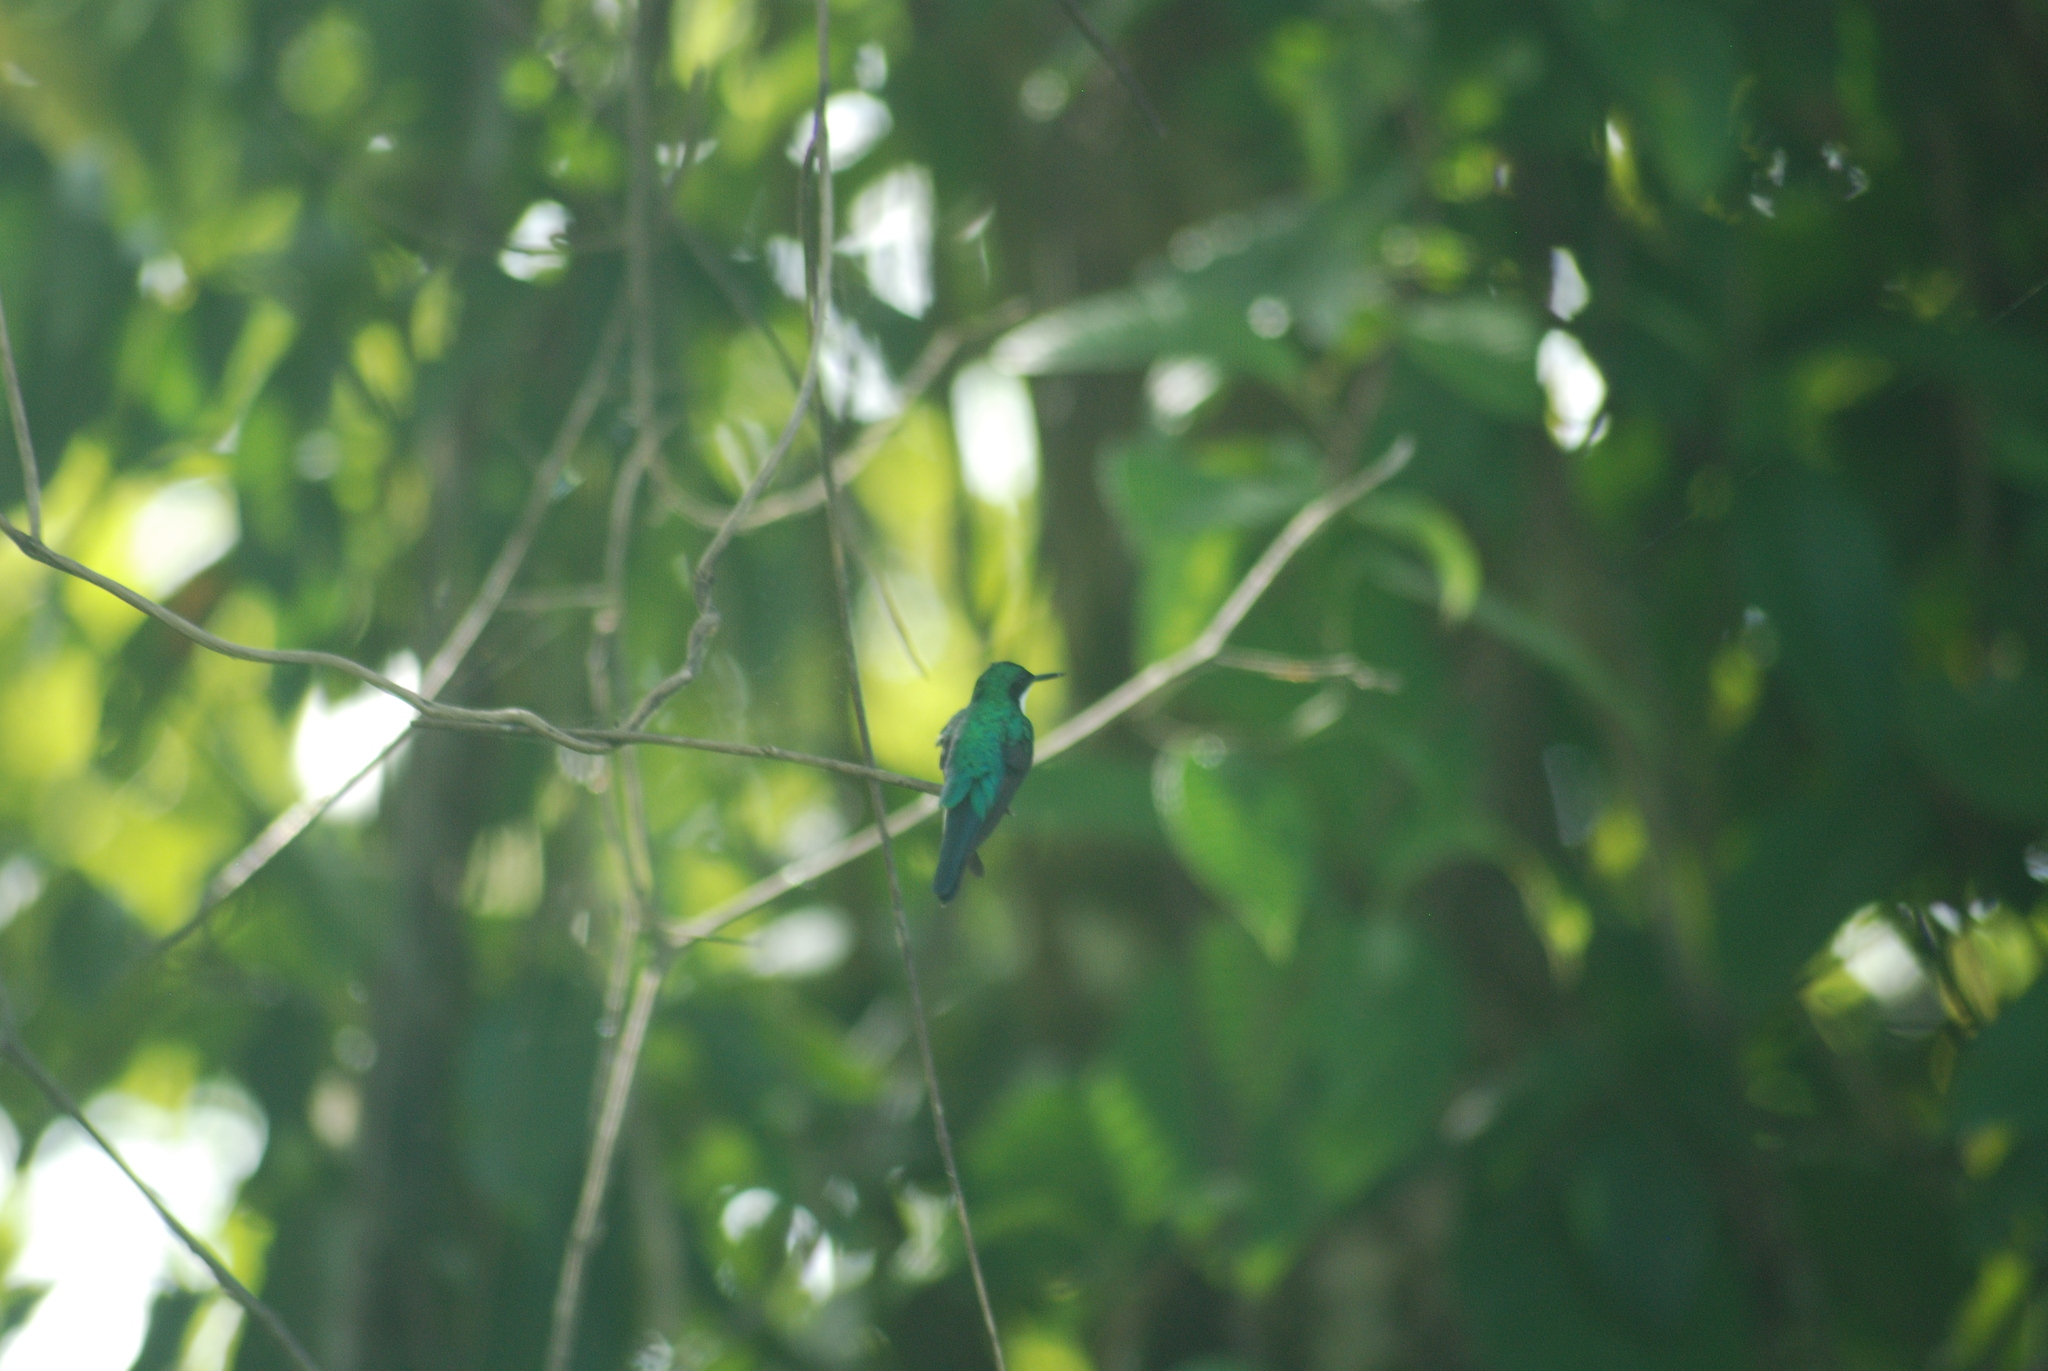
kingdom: Animalia
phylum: Chordata
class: Aves
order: Apodiformes
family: Trochilidae
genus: Heliothryx
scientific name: Heliothryx barroti
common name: Purple-crowned fairy
